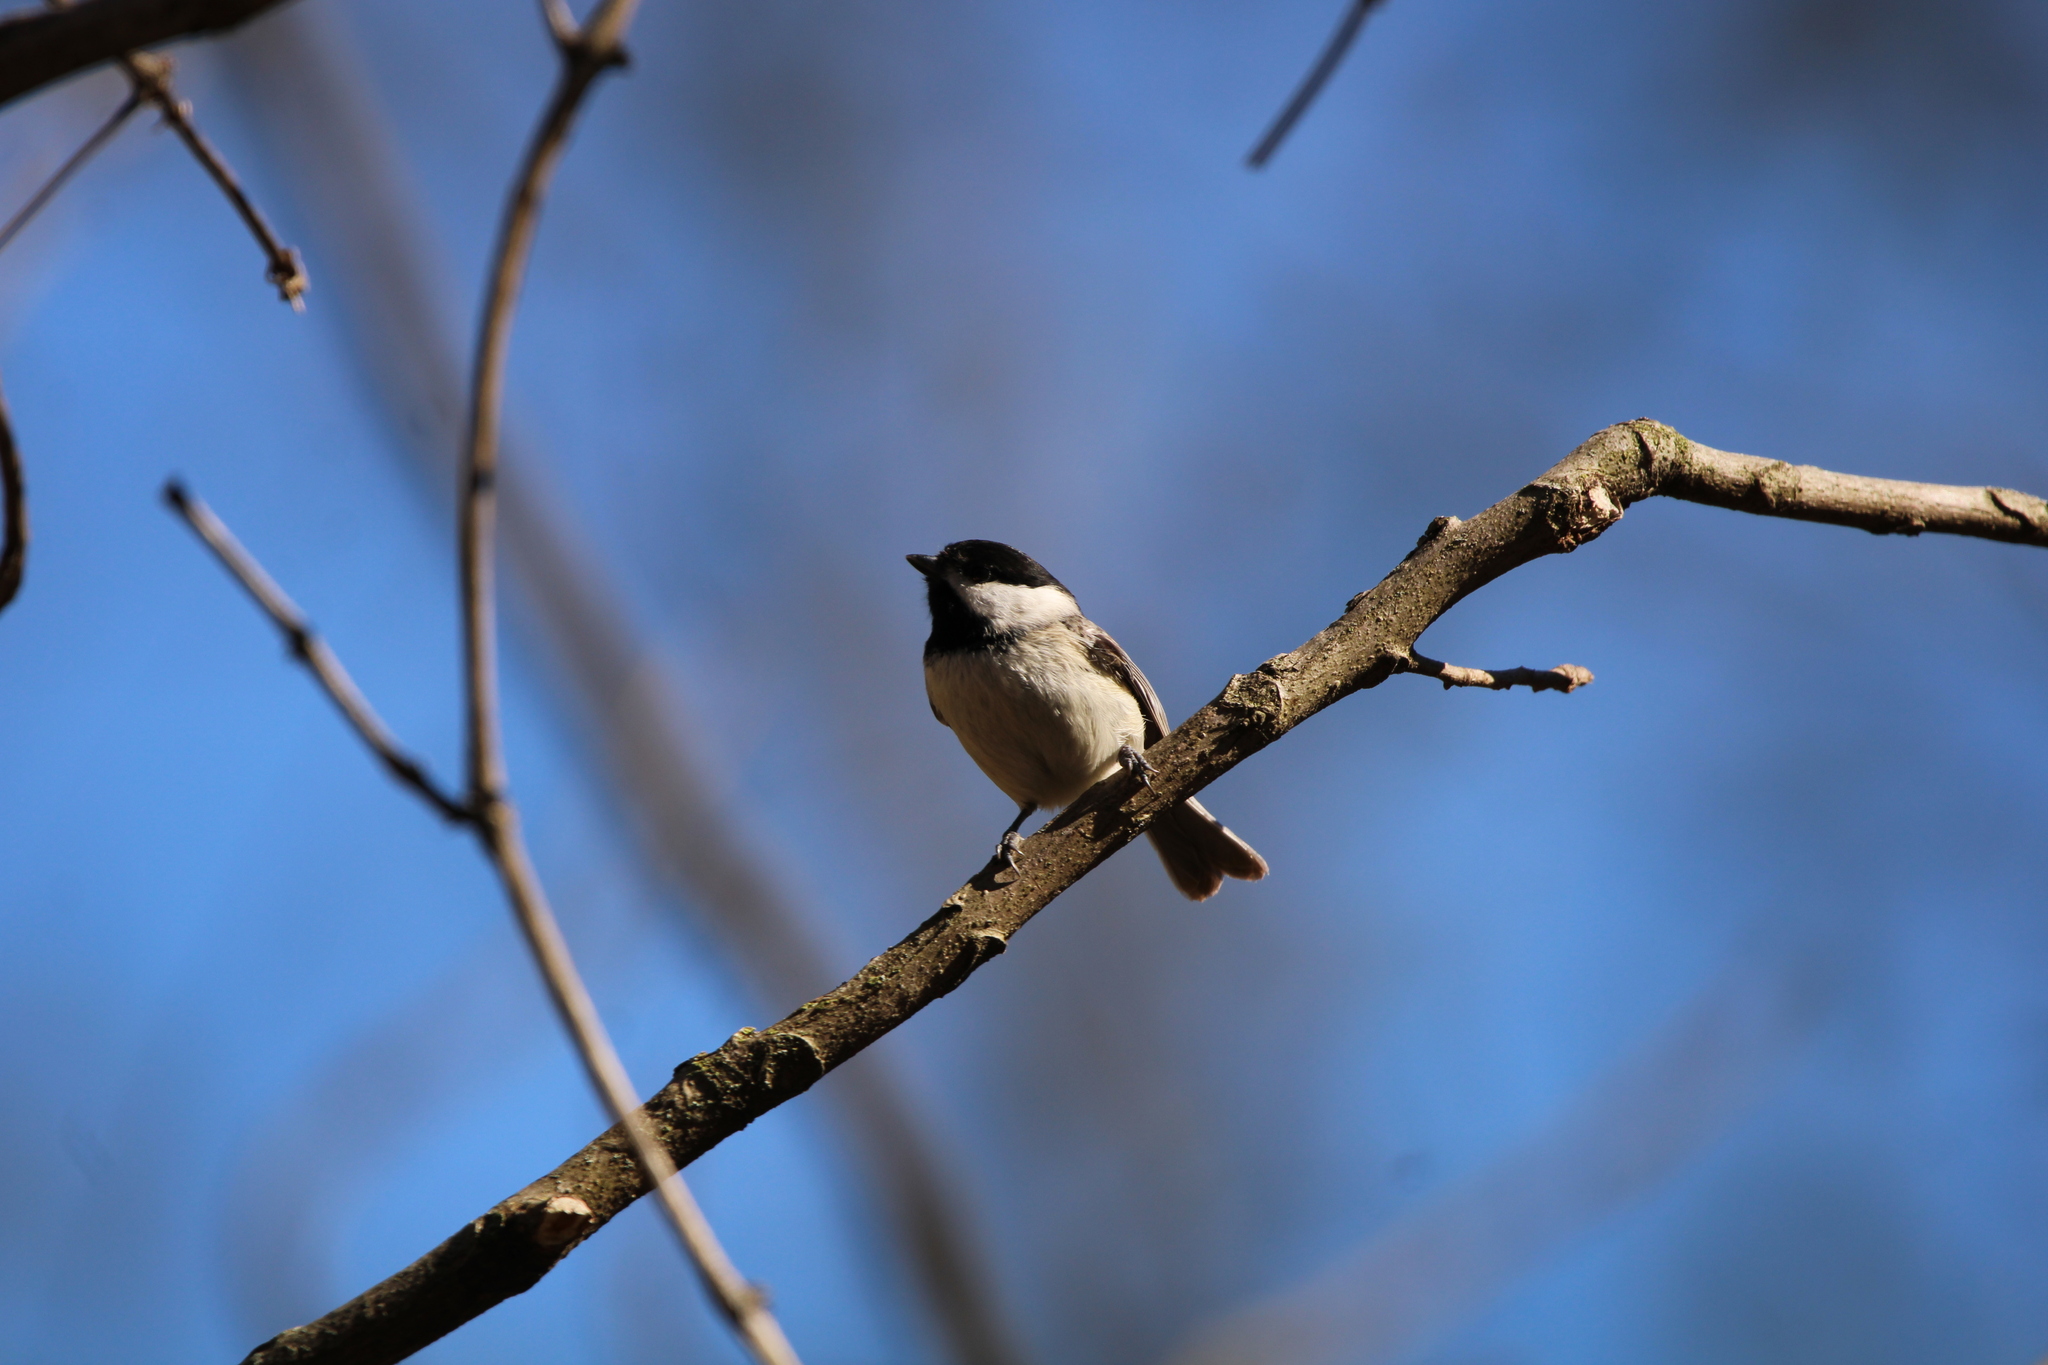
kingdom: Animalia
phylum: Chordata
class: Aves
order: Passeriformes
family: Paridae
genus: Poecile
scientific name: Poecile atricapillus
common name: Black-capped chickadee
